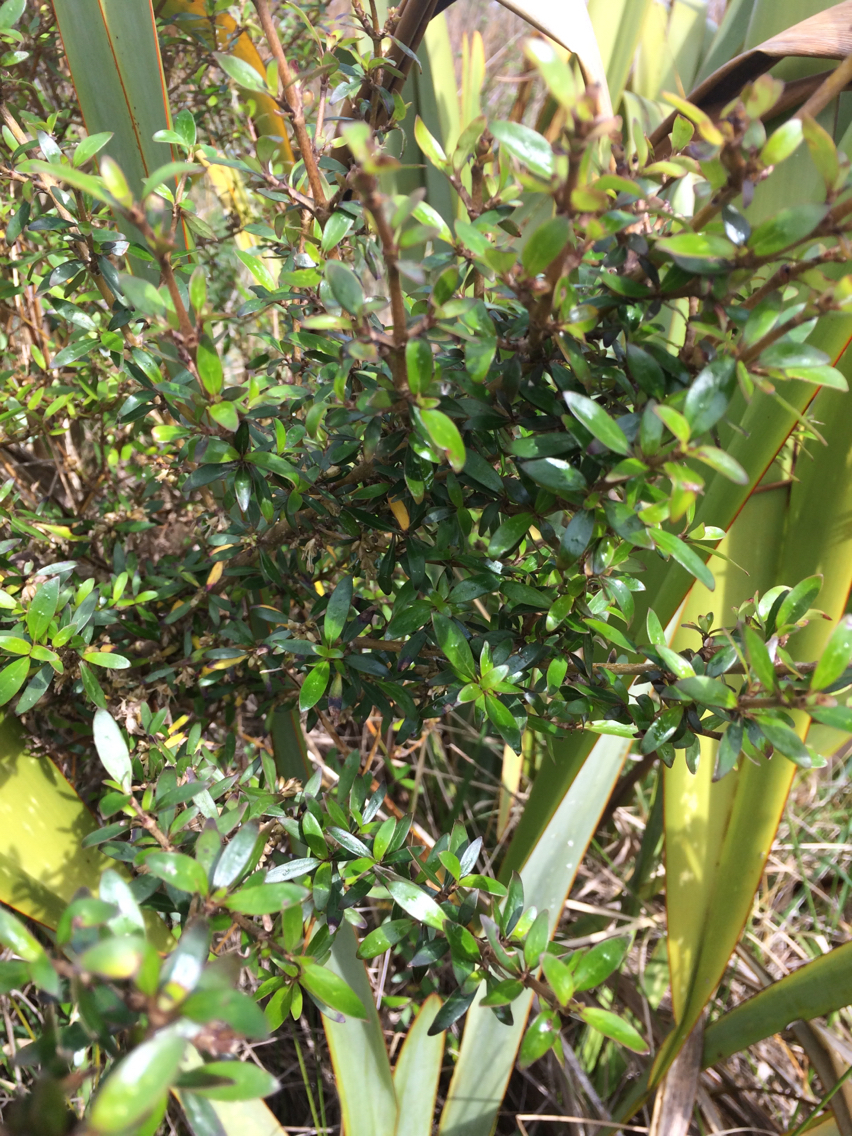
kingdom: Plantae
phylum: Tracheophyta
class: Magnoliopsida
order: Gentianales
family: Rubiaceae
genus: Coprosma
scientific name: Coprosma cunninghamii
